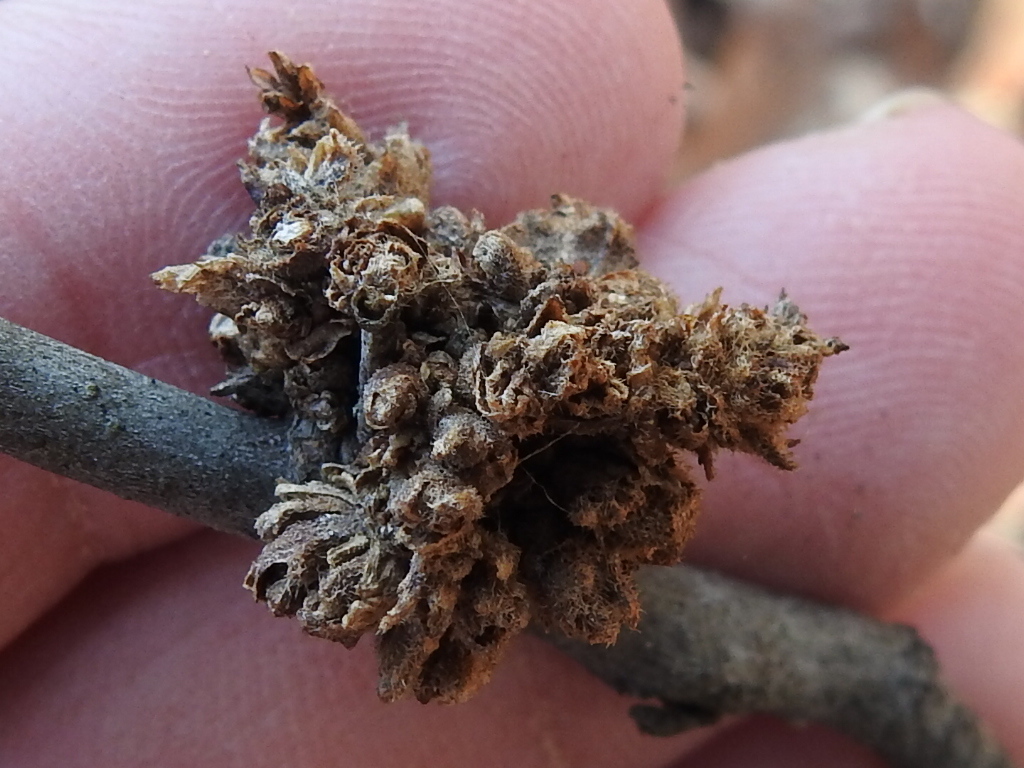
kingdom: Animalia
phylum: Arthropoda
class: Arachnida
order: Trombidiformes
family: Eriophyidae
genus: Aceria
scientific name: Aceria
